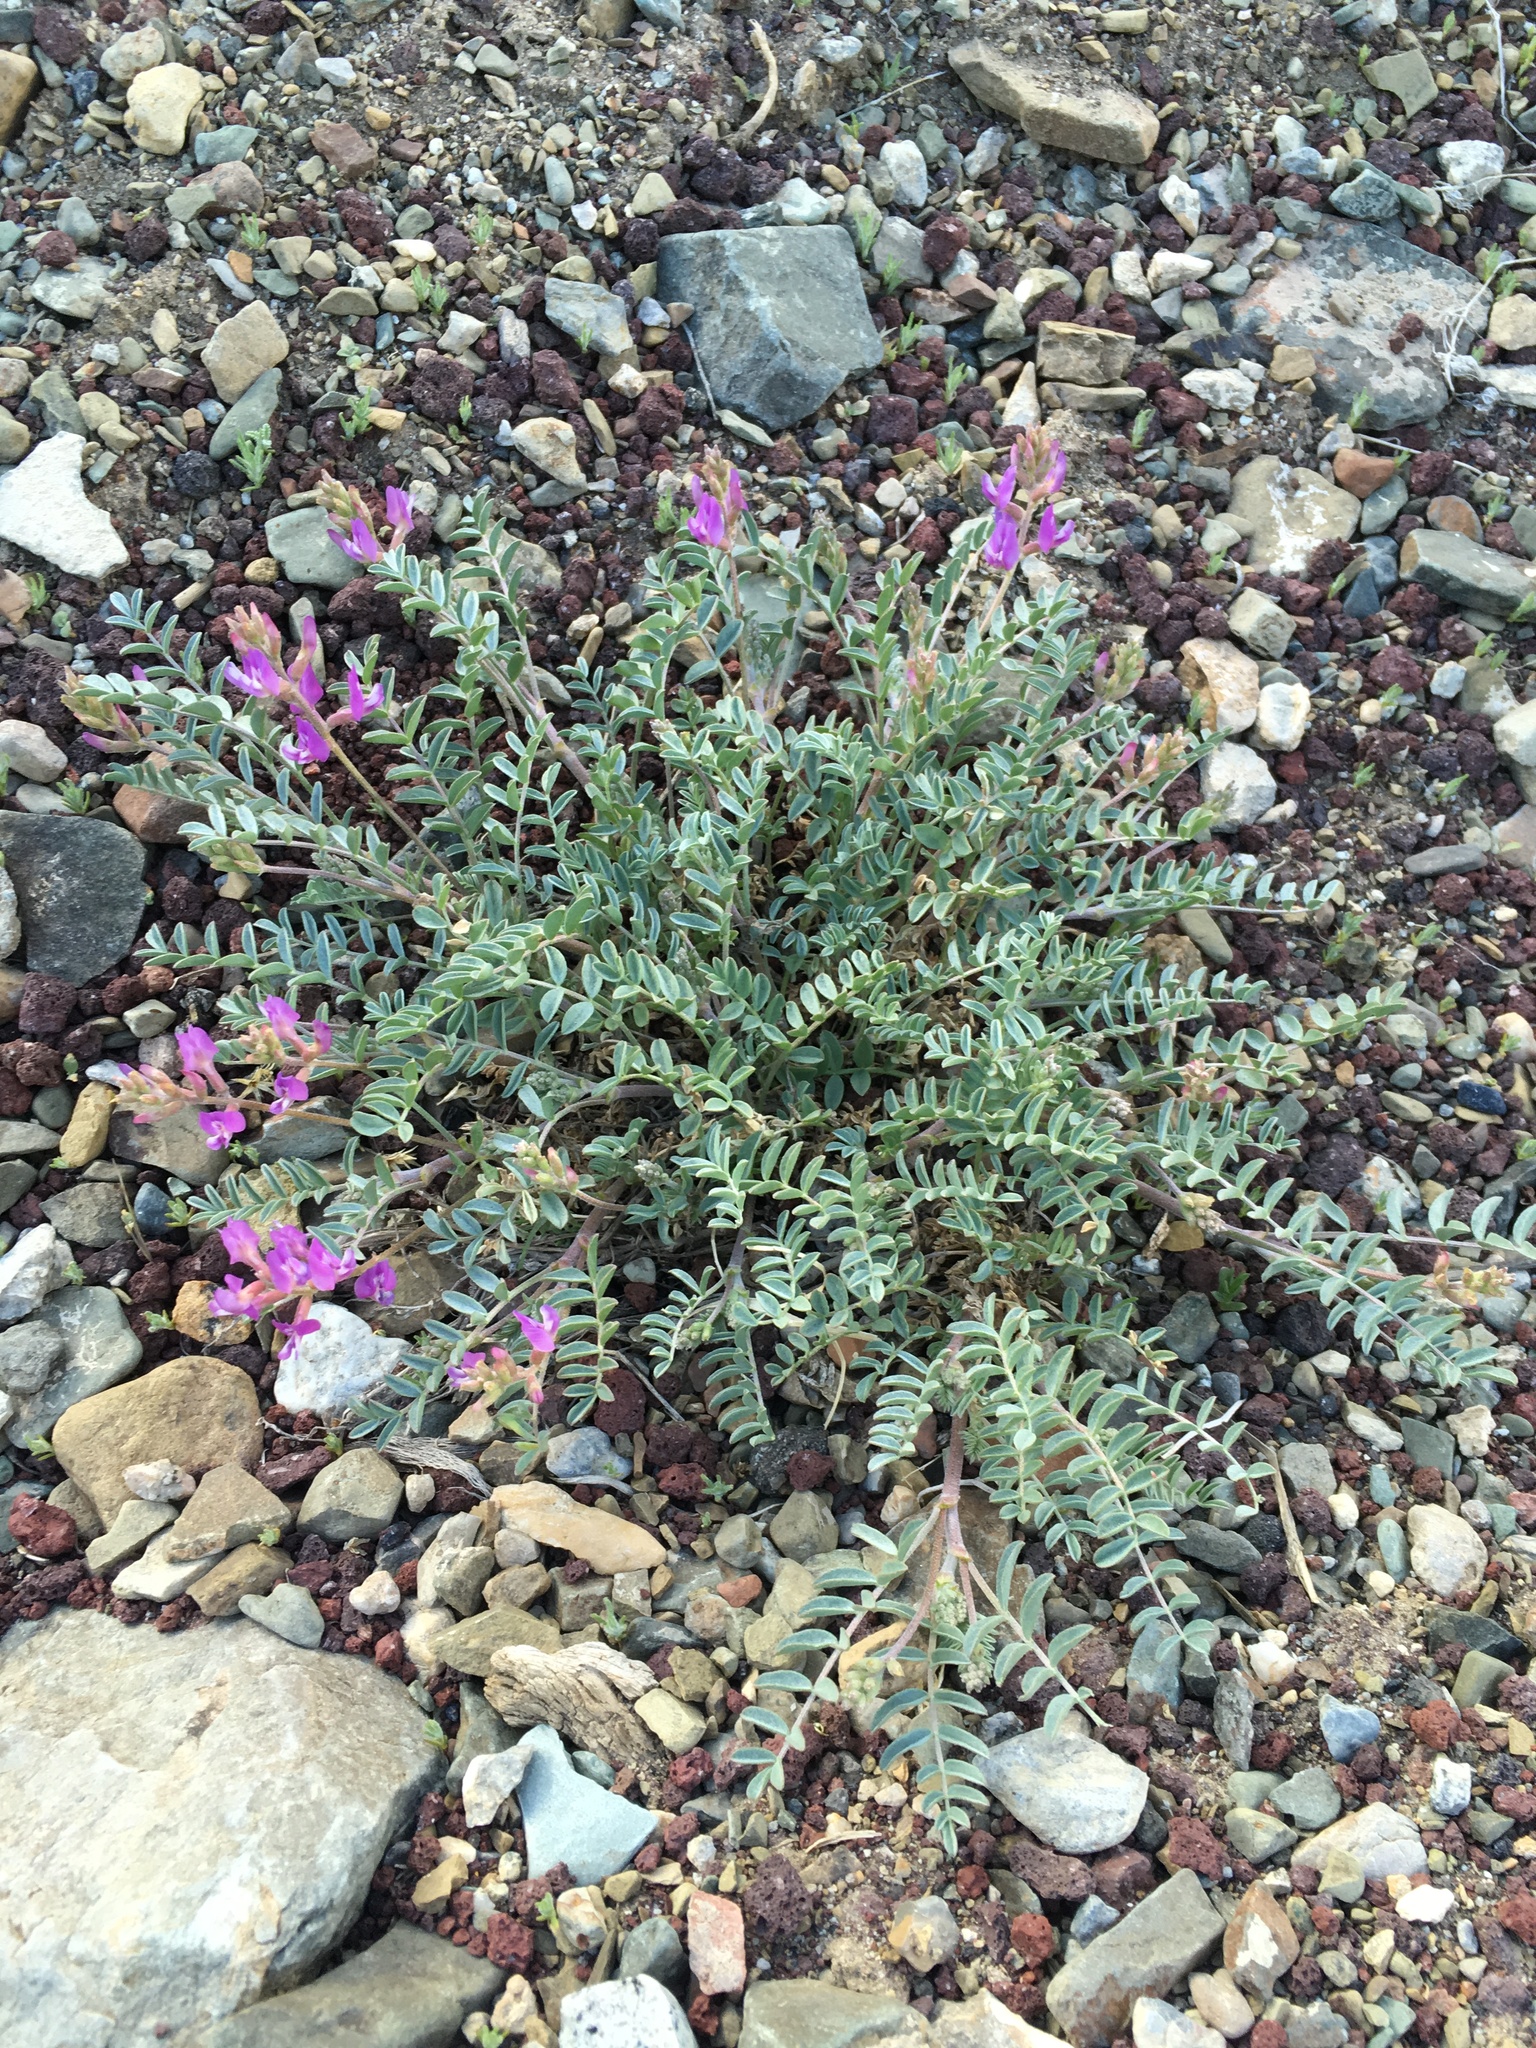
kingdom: Plantae
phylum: Tracheophyta
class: Magnoliopsida
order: Fabales
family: Fabaceae
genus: Astragalus
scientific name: Astragalus lentiginosus
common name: Freckled milkvetch
